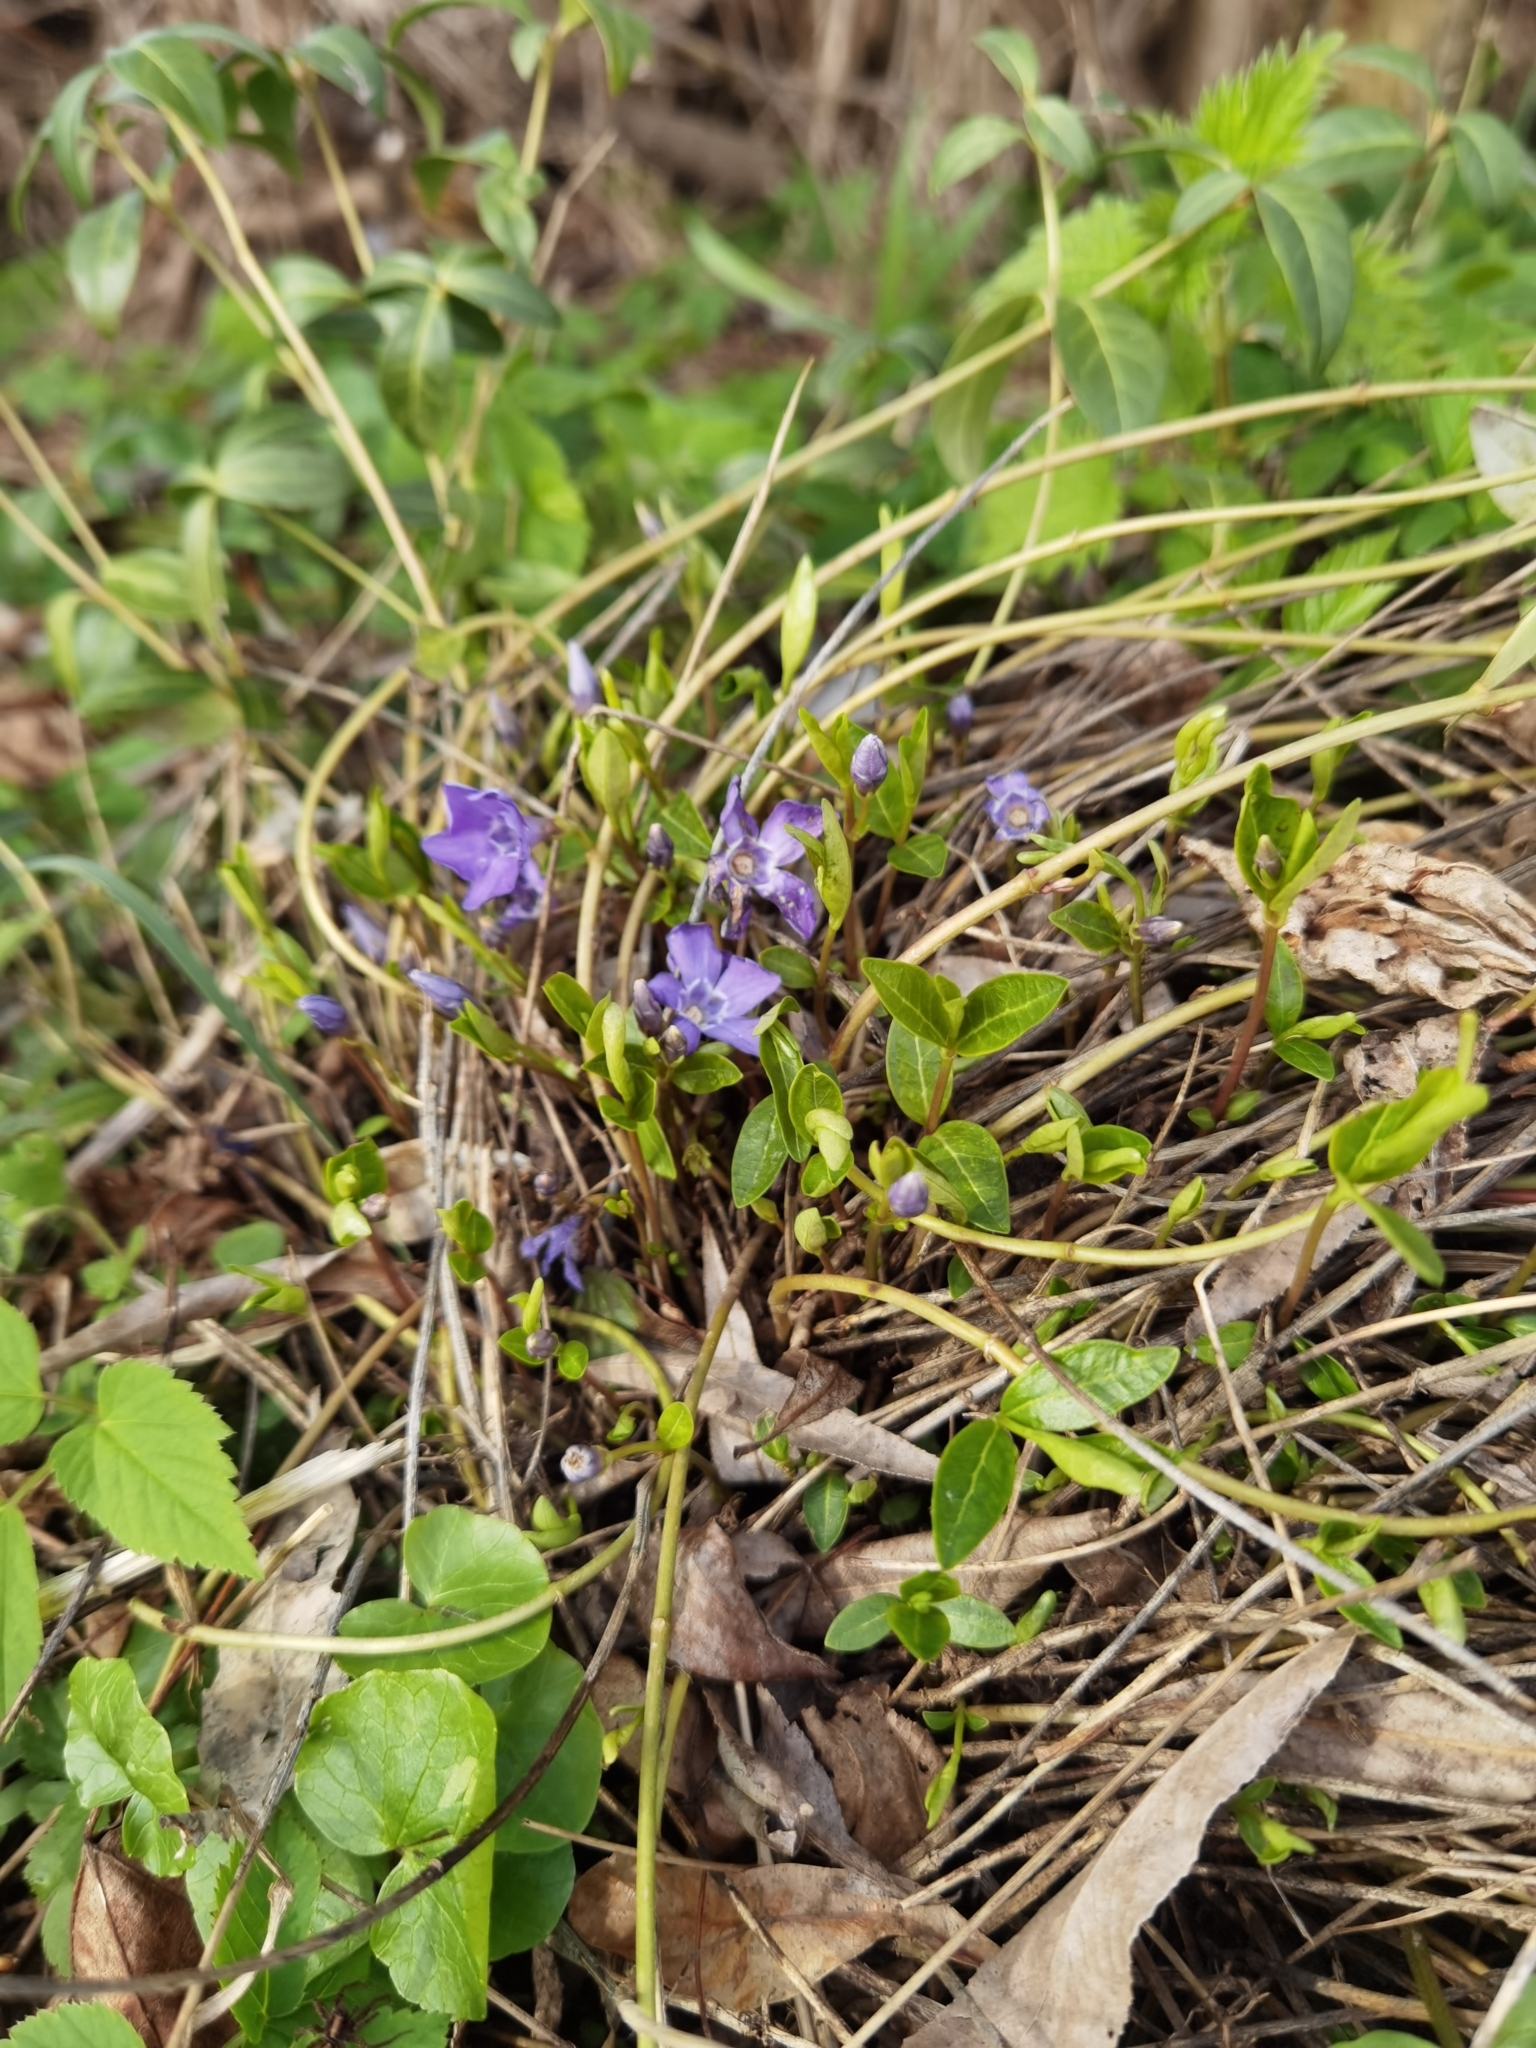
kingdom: Plantae
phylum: Tracheophyta
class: Magnoliopsida
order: Gentianales
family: Apocynaceae
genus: Vinca
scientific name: Vinca minor
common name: Lesser periwinkle
